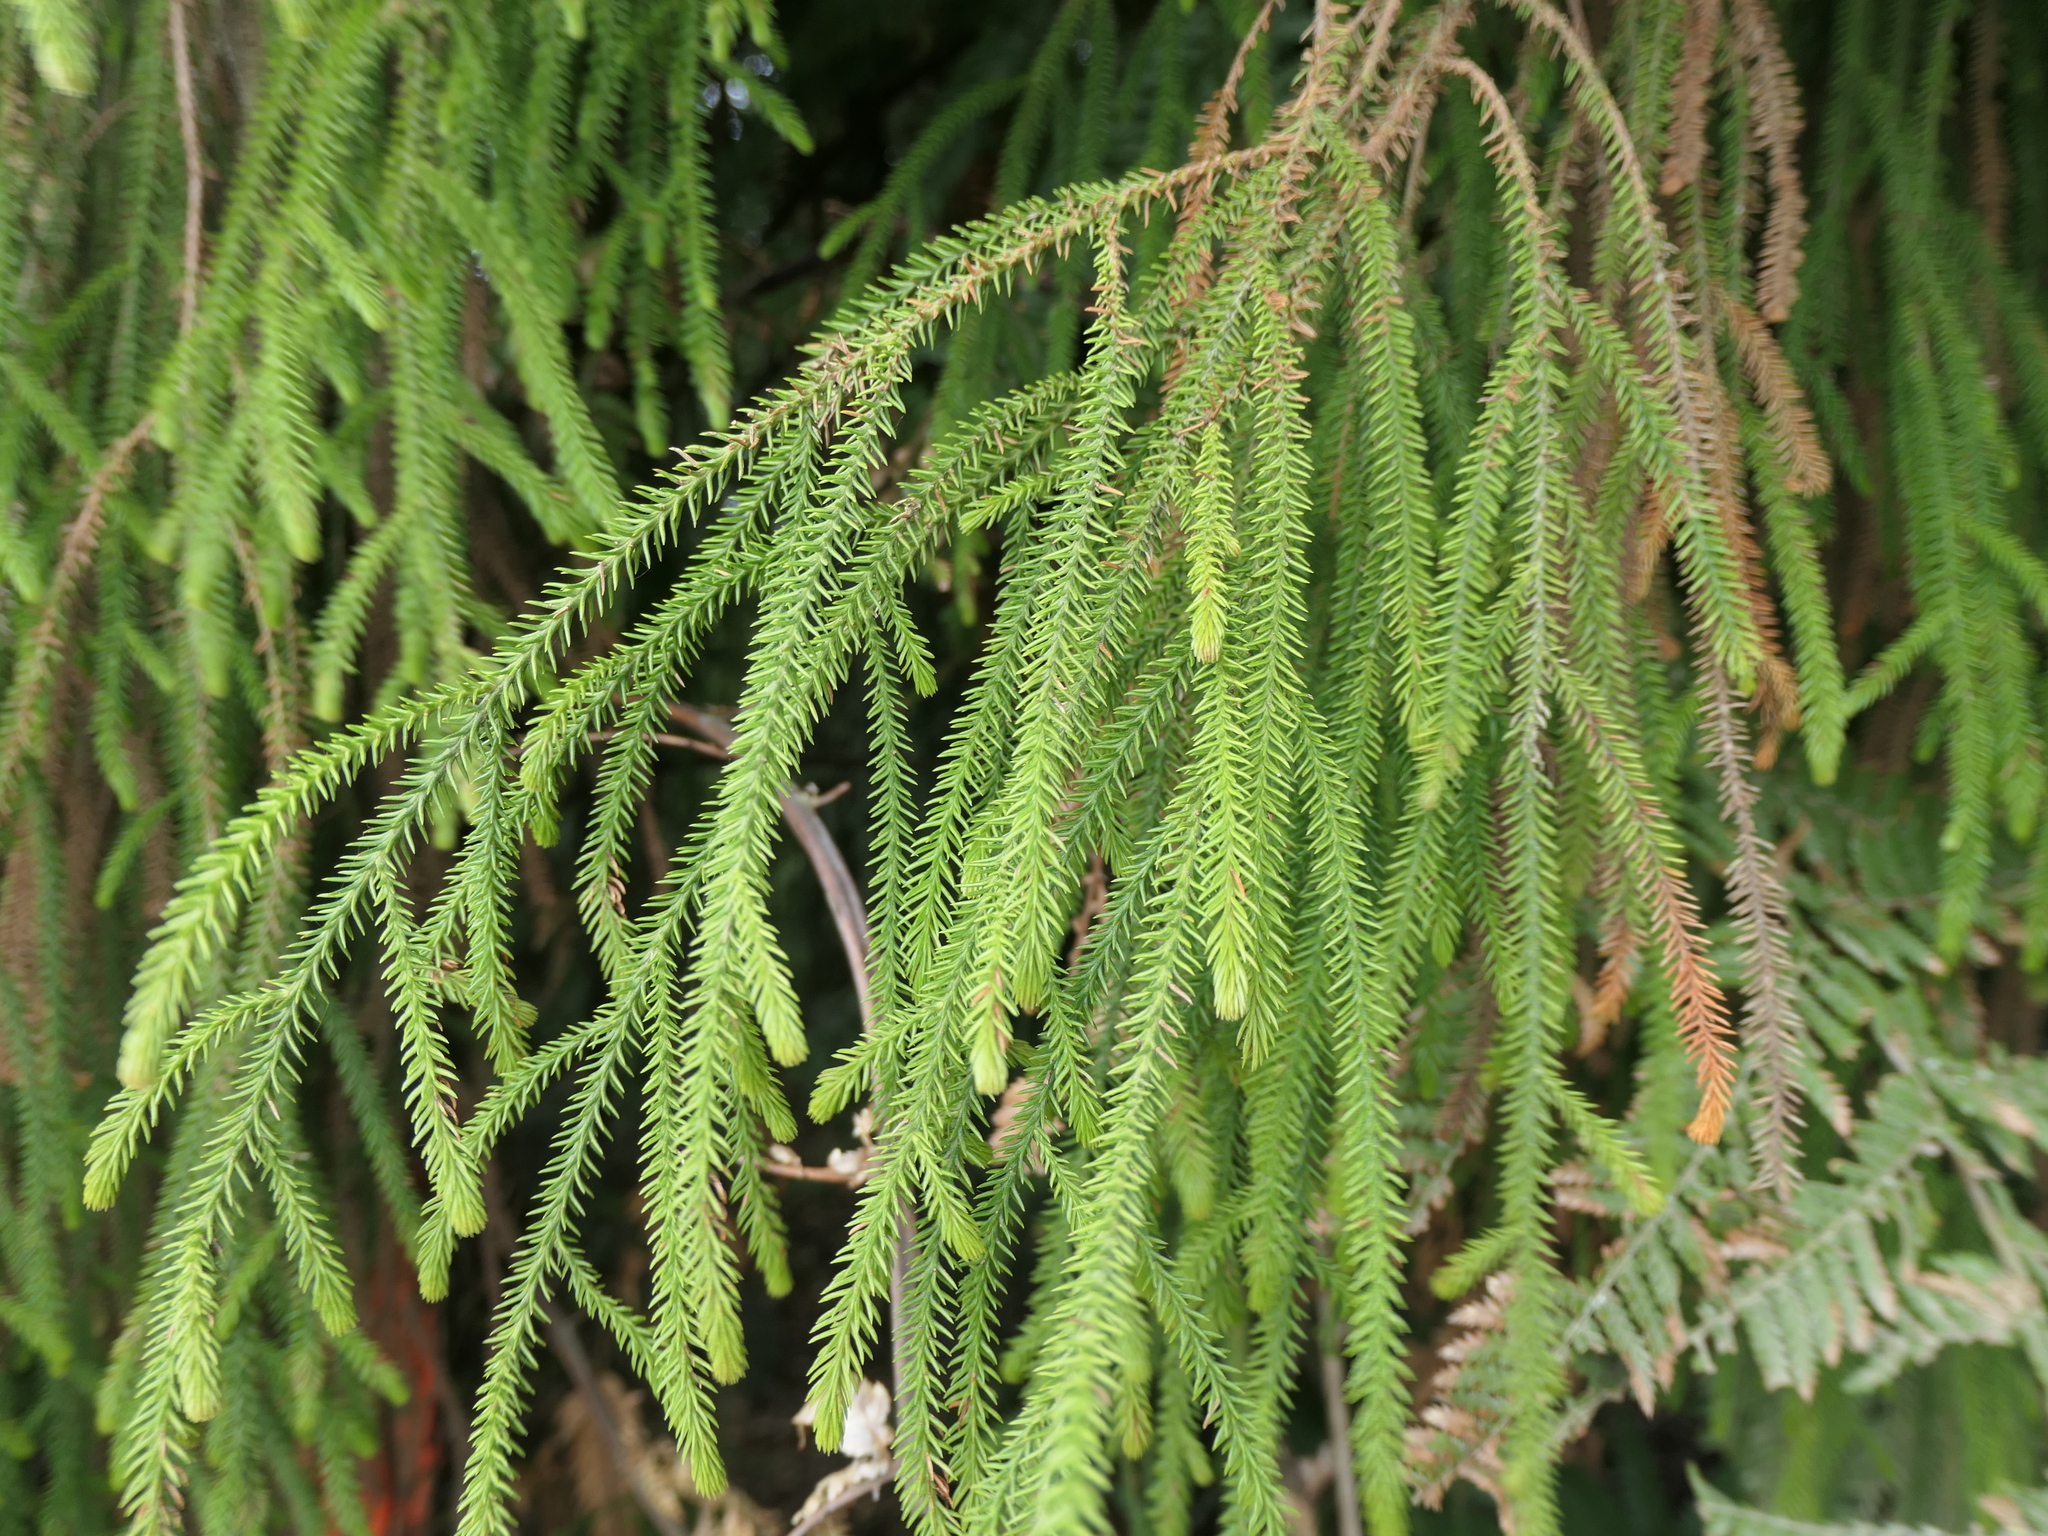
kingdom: Plantae
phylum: Tracheophyta
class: Pinopsida
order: Pinales
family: Podocarpaceae
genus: Dacrydium
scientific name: Dacrydium cupressinum
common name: Red pine
